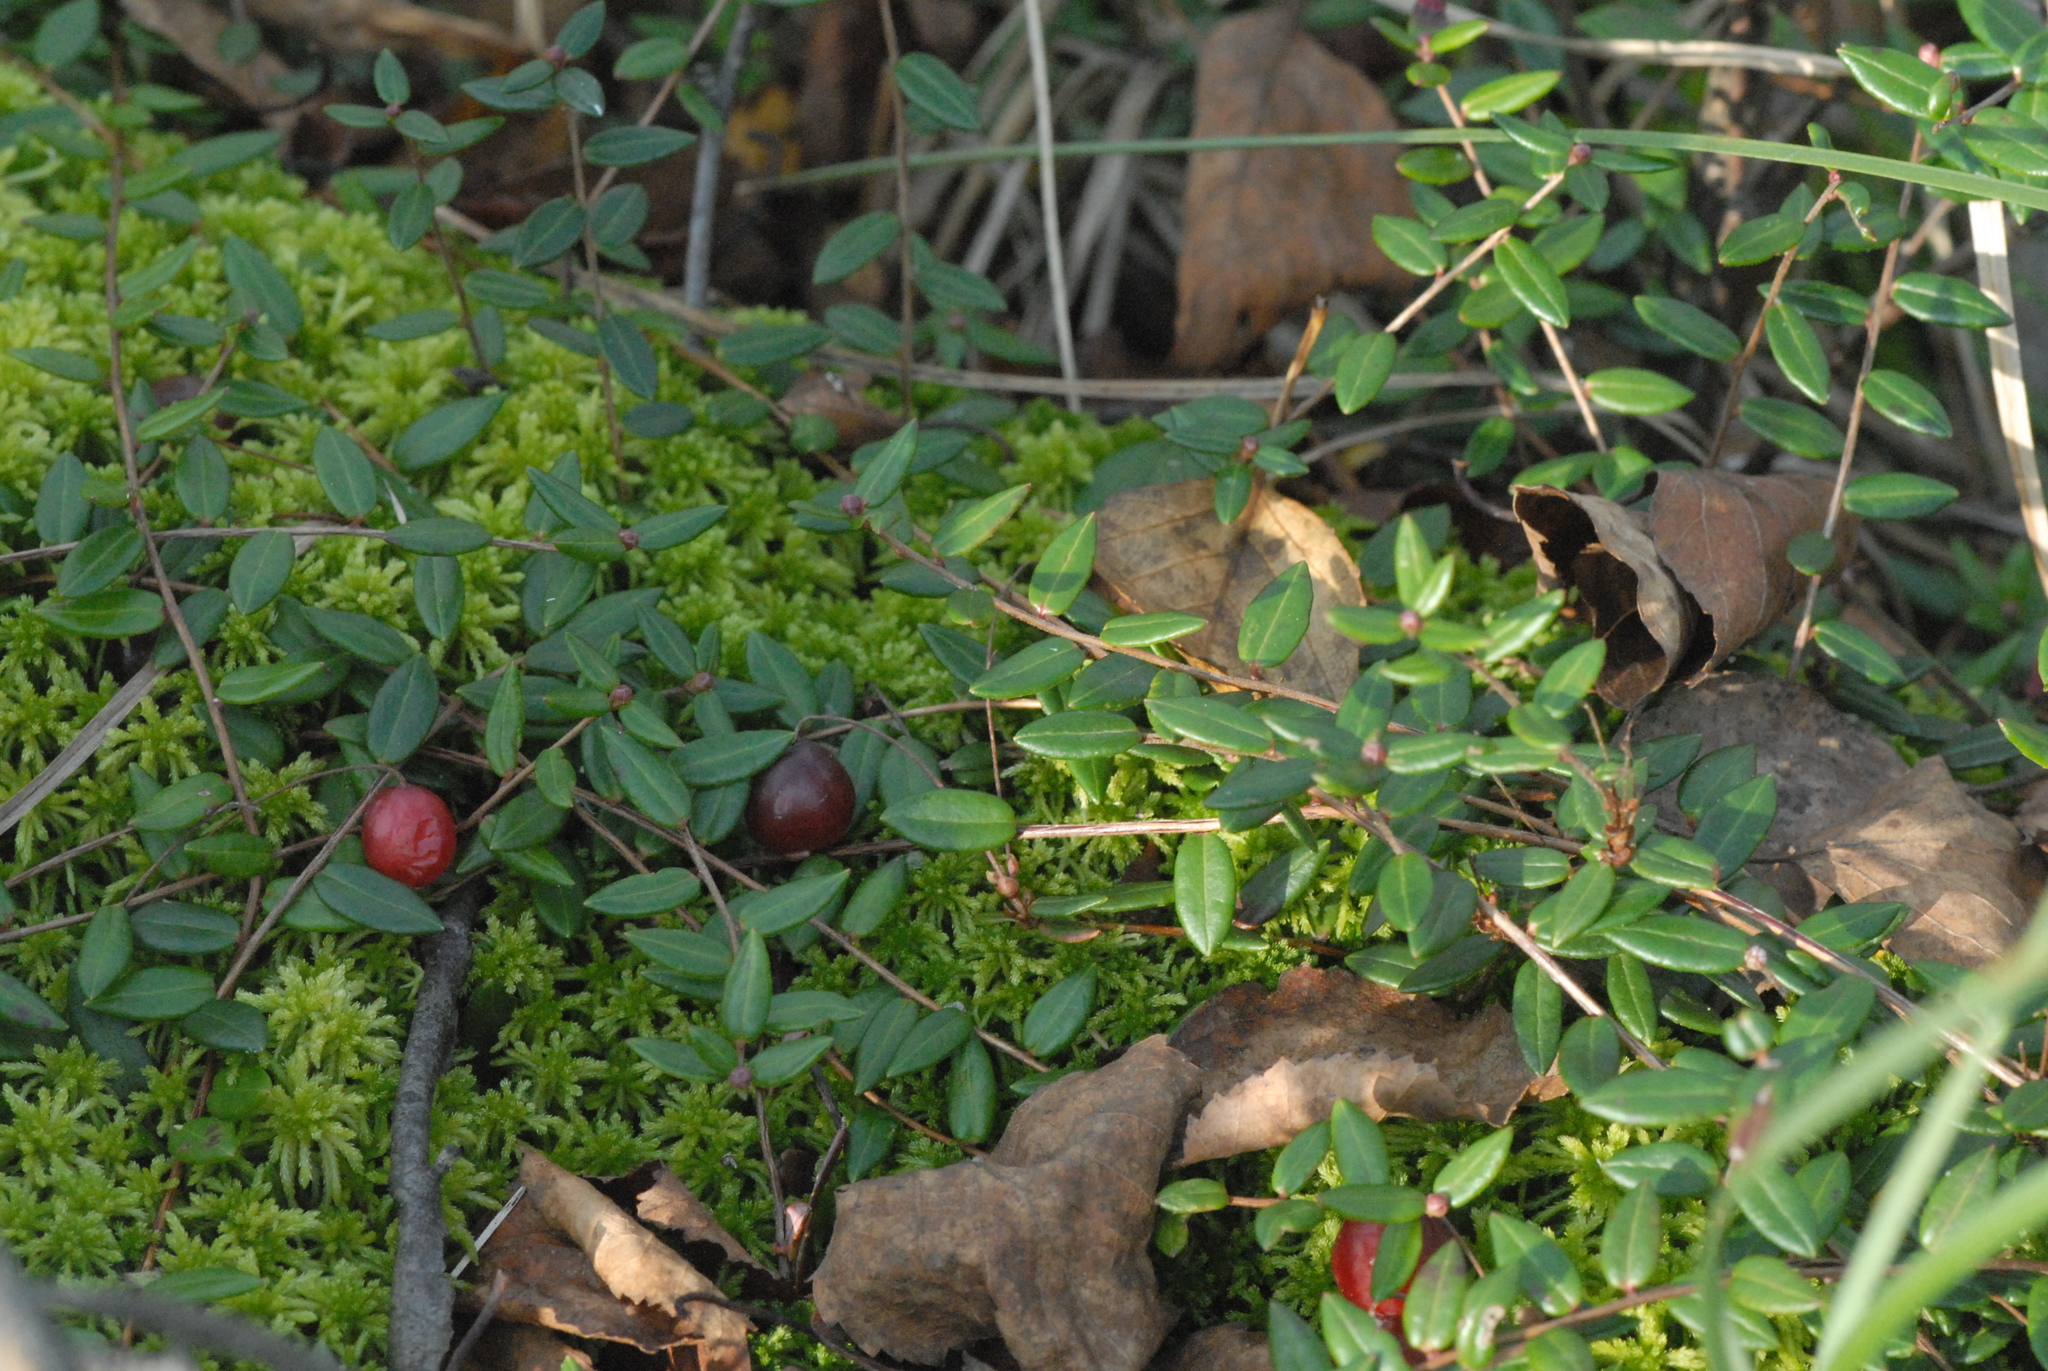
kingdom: Plantae
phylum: Tracheophyta
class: Magnoliopsida
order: Ericales
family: Ericaceae
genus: Vaccinium
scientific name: Vaccinium oxycoccos
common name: Cranberry
